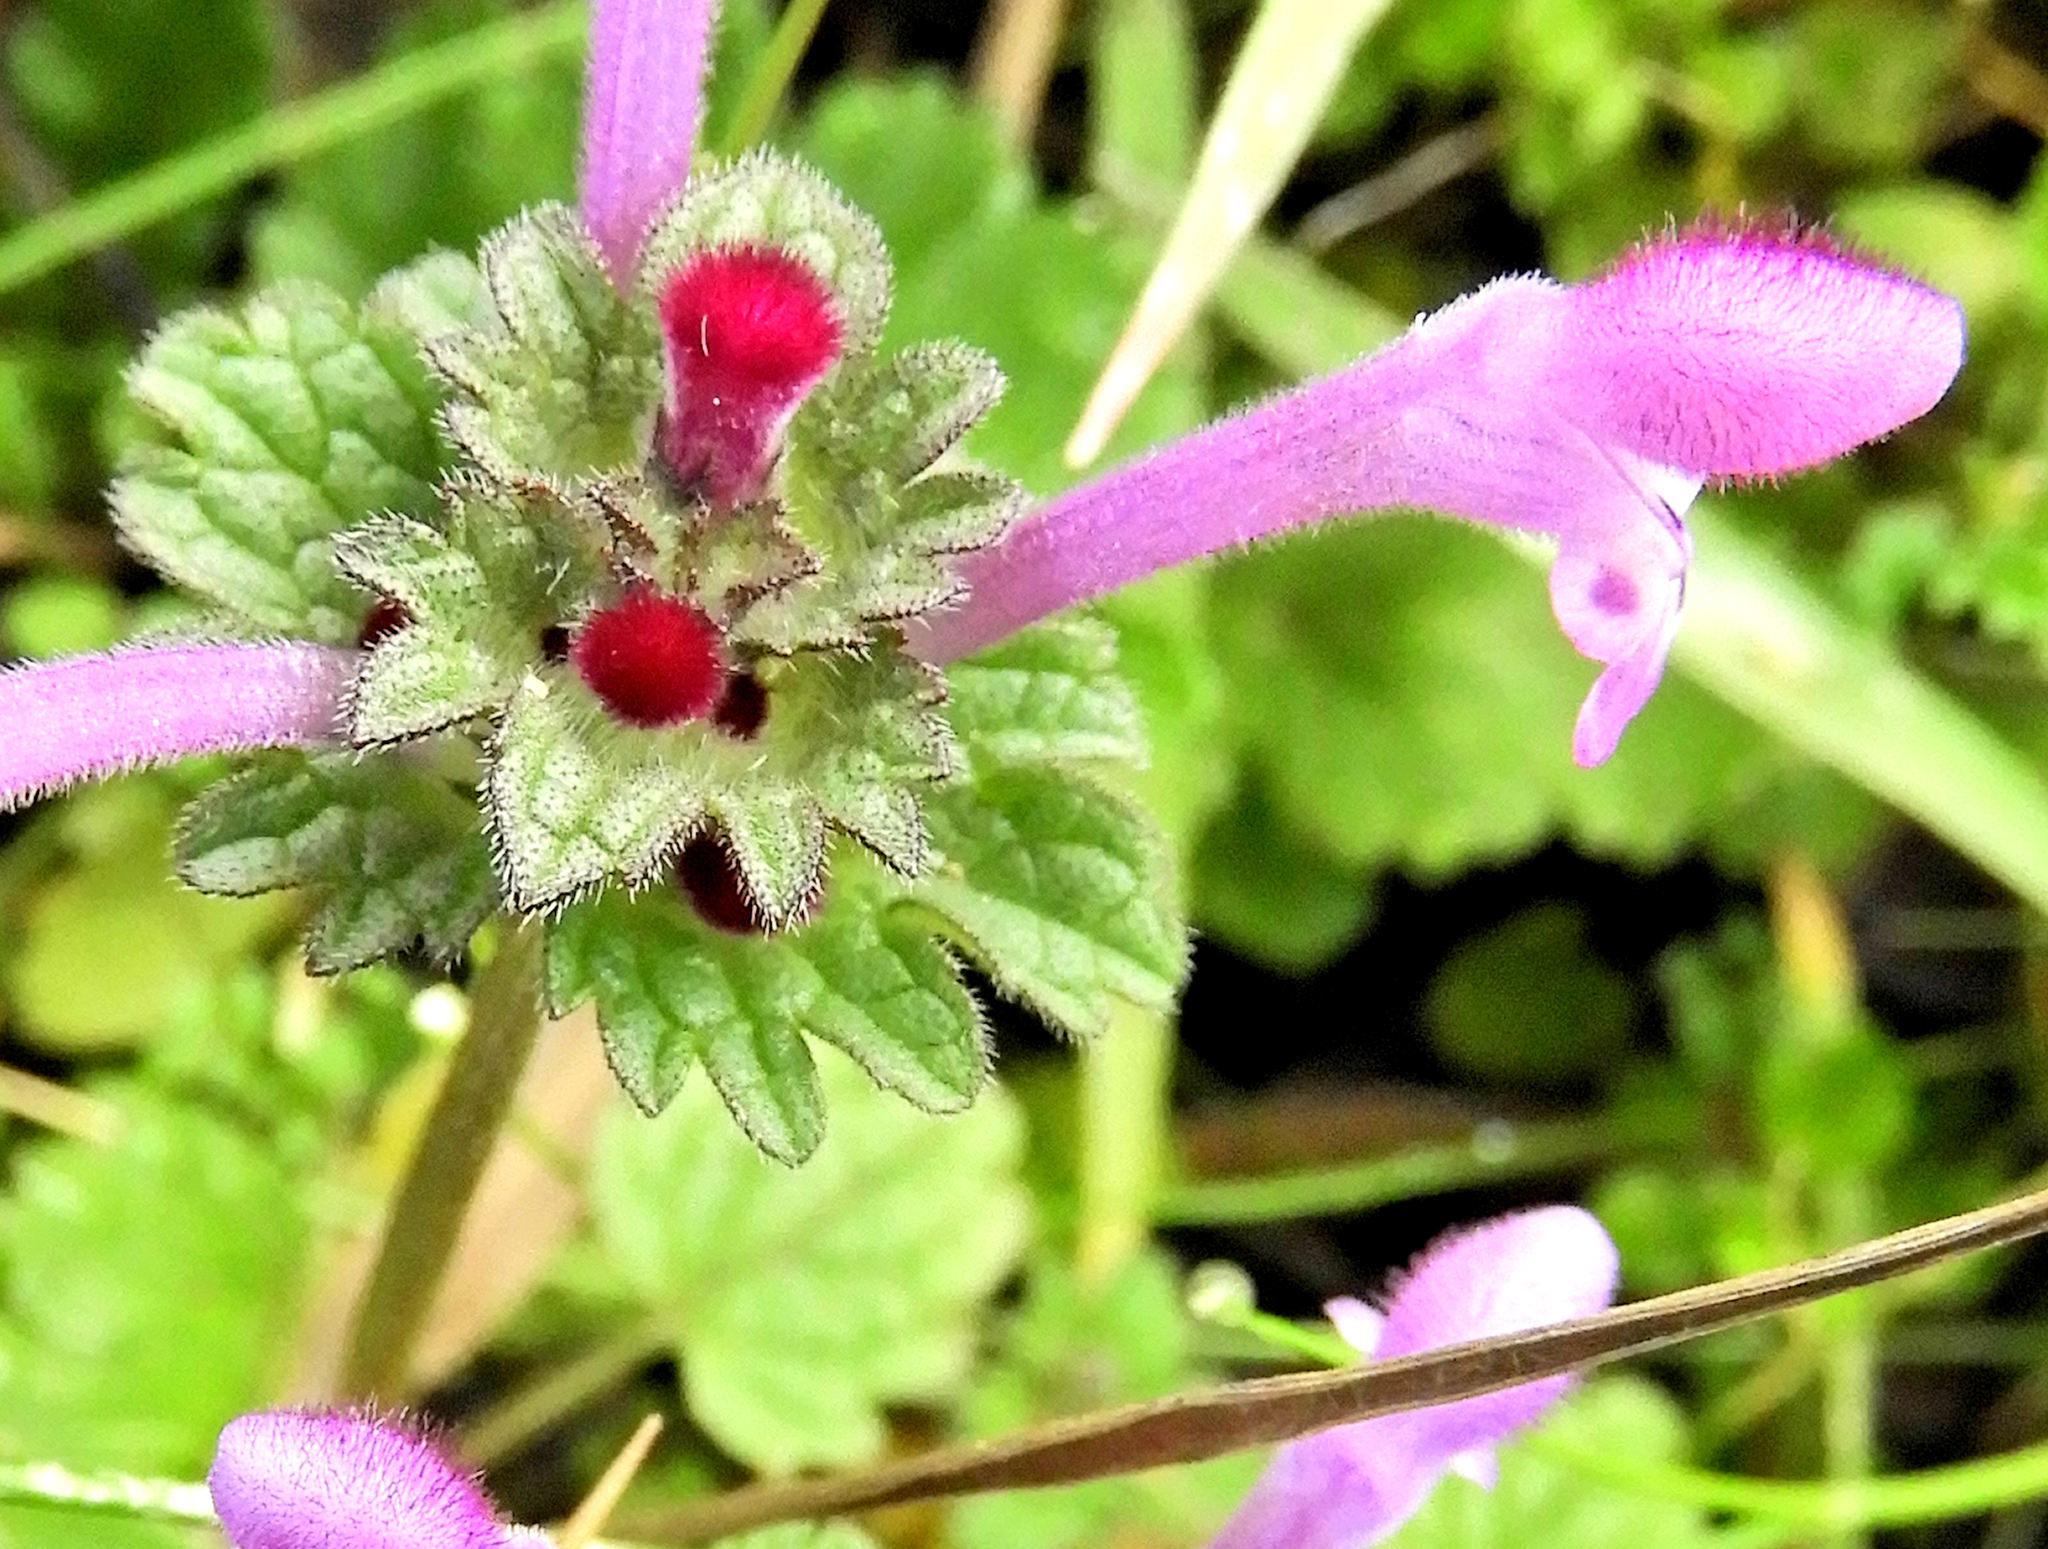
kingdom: Plantae
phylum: Tracheophyta
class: Magnoliopsida
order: Lamiales
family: Lamiaceae
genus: Lamium
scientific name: Lamium amplexicaule
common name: Henbit dead-nettle
